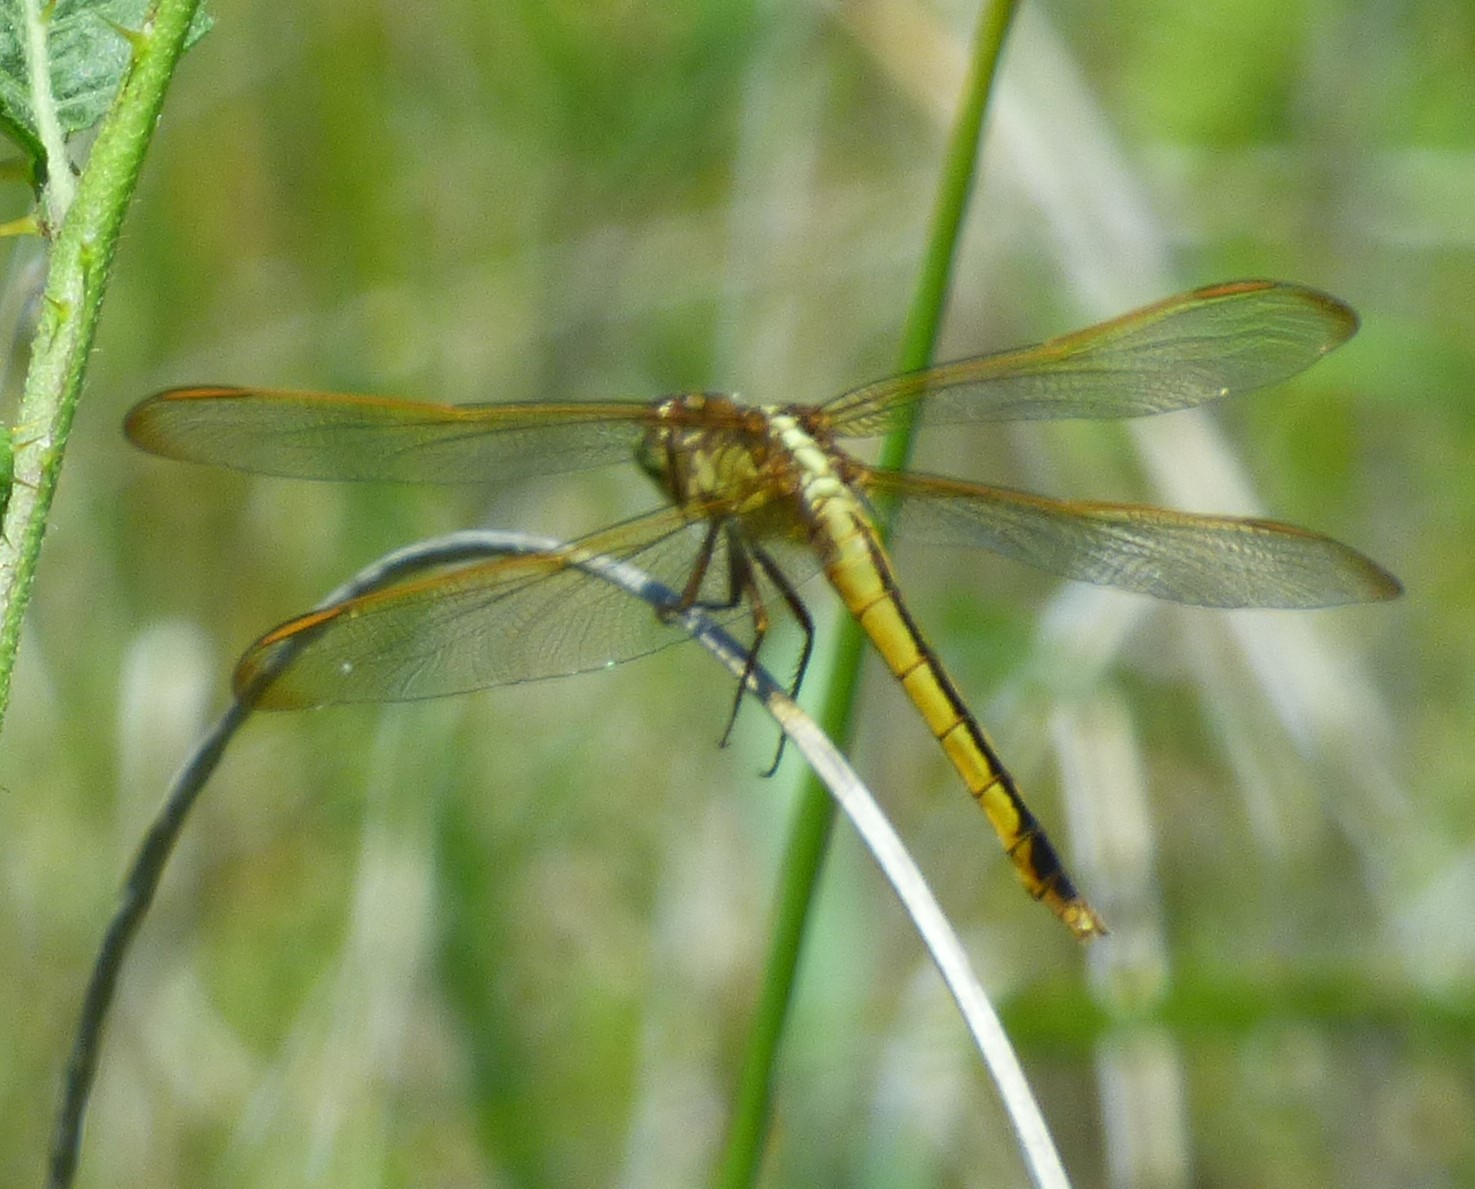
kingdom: Animalia
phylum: Arthropoda
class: Insecta
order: Odonata
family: Libellulidae
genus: Libellula
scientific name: Libellula needhami
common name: Needham's skimmer
